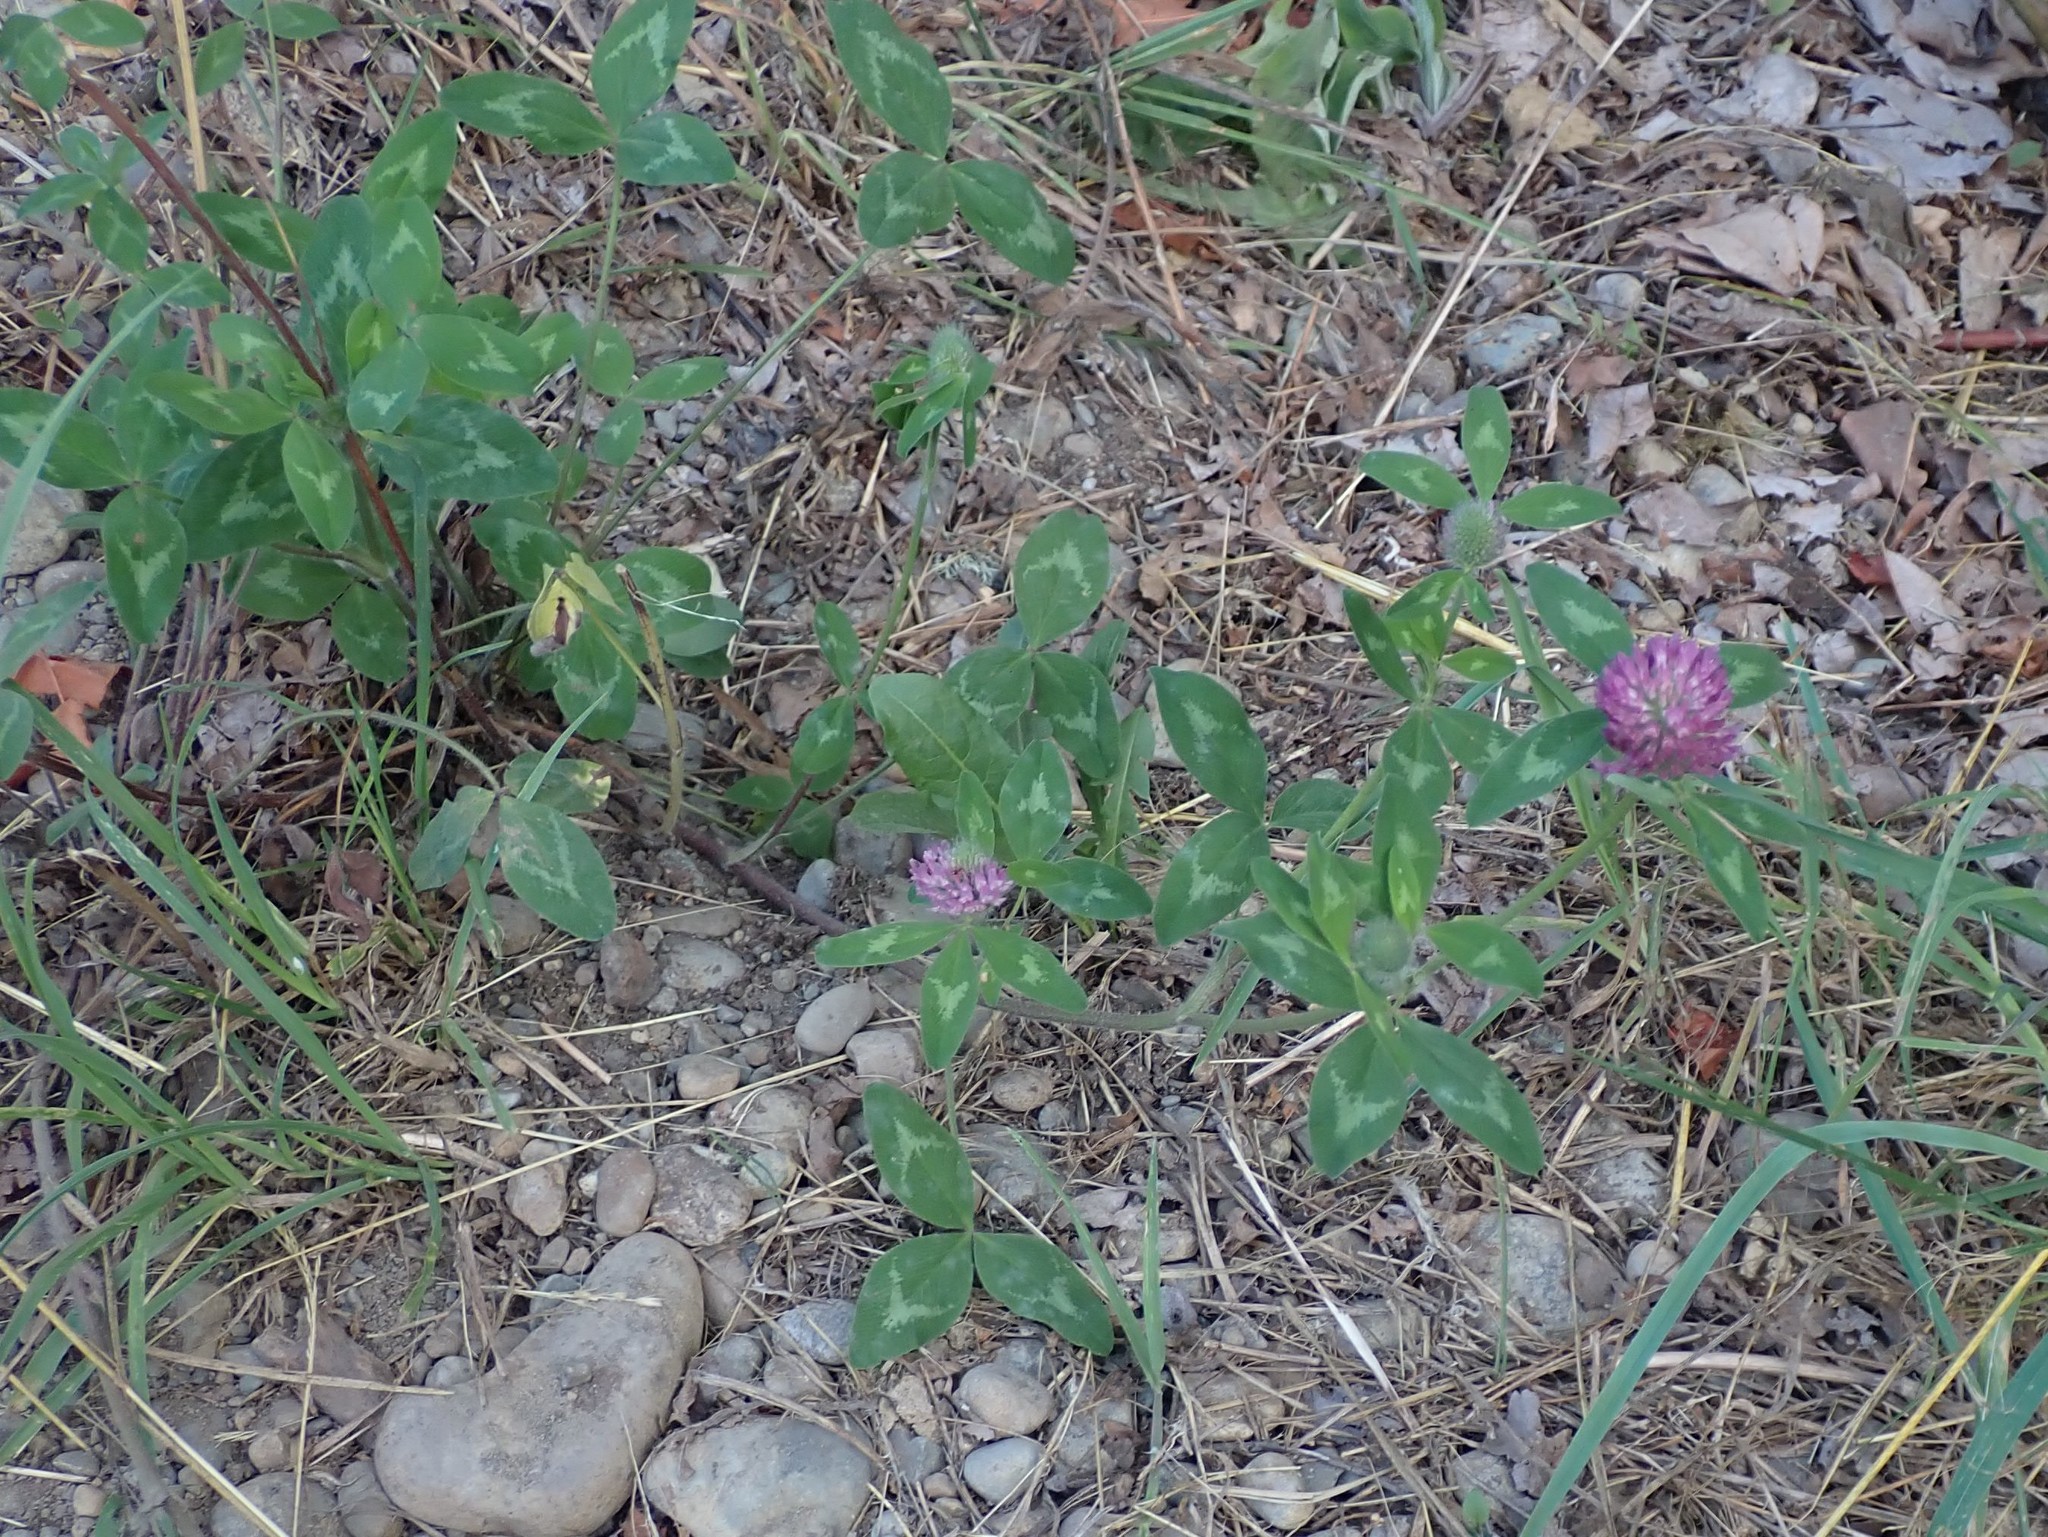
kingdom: Plantae
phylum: Tracheophyta
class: Magnoliopsida
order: Fabales
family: Fabaceae
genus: Trifolium
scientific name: Trifolium pratense
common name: Red clover
